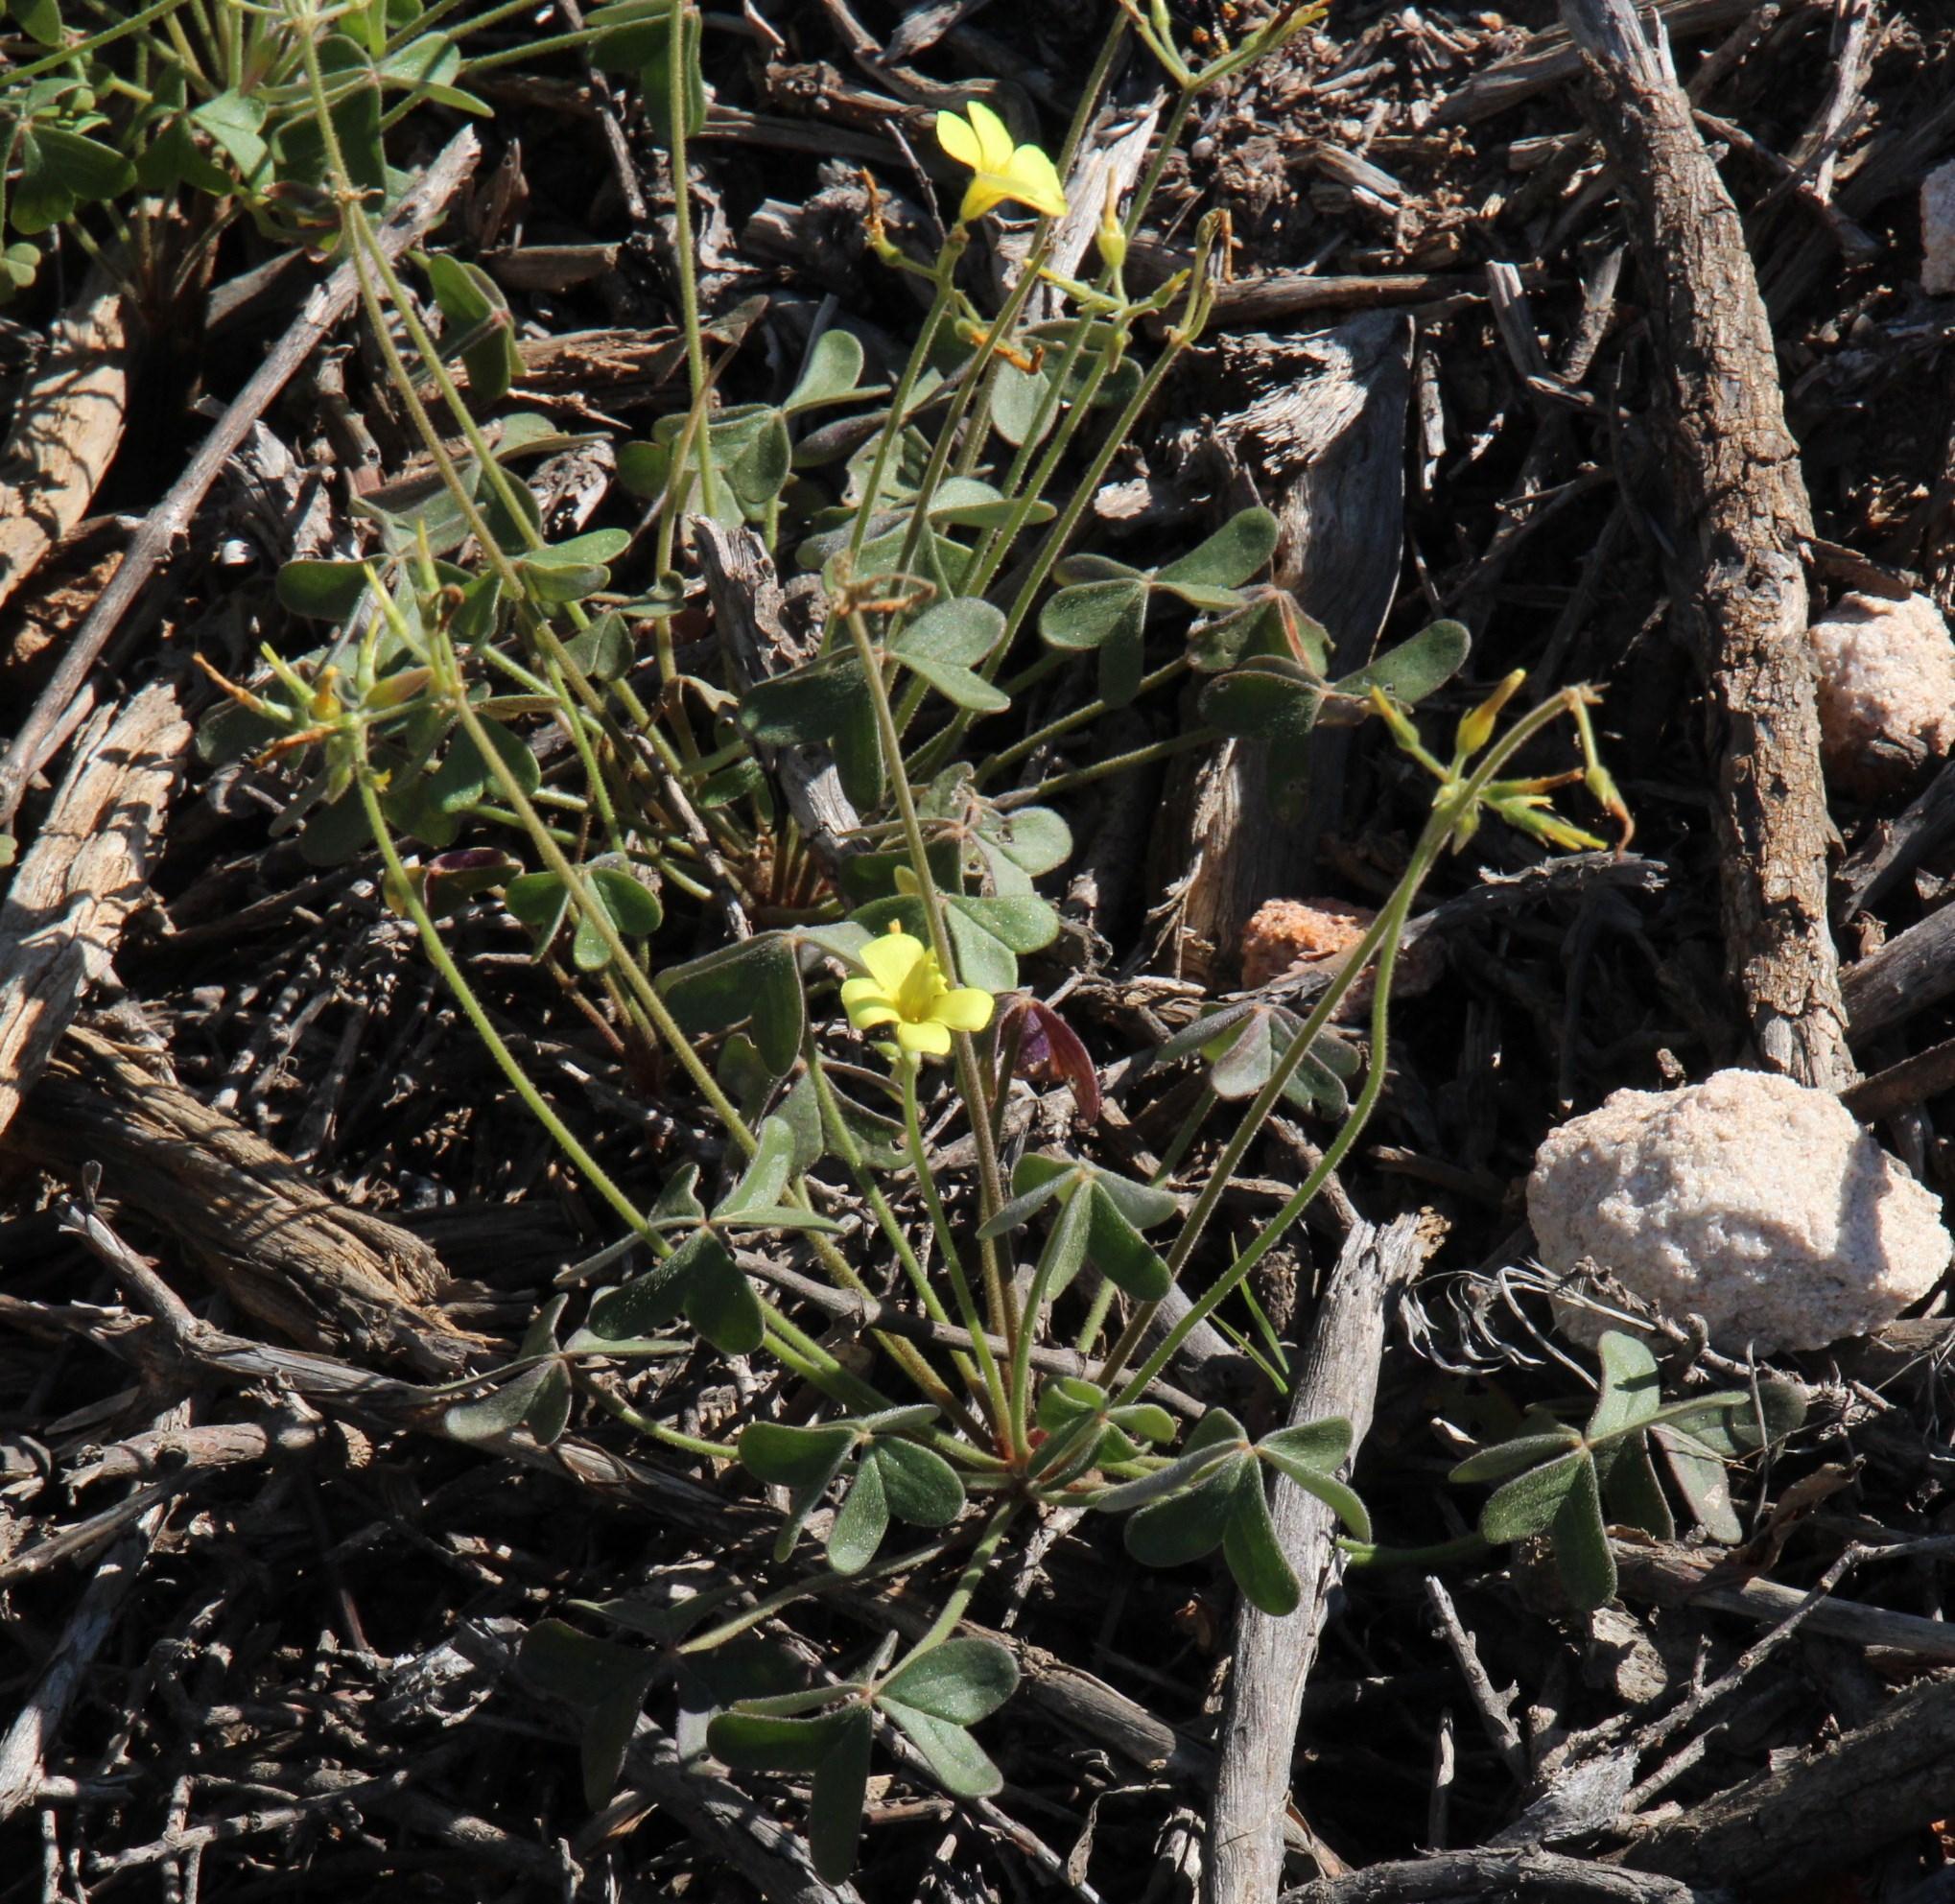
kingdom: Plantae
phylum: Tracheophyta
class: Magnoliopsida
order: Oxalidales
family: Oxalidaceae
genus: Oxalis
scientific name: Oxalis pes-caprae
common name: Bermuda-buttercup
